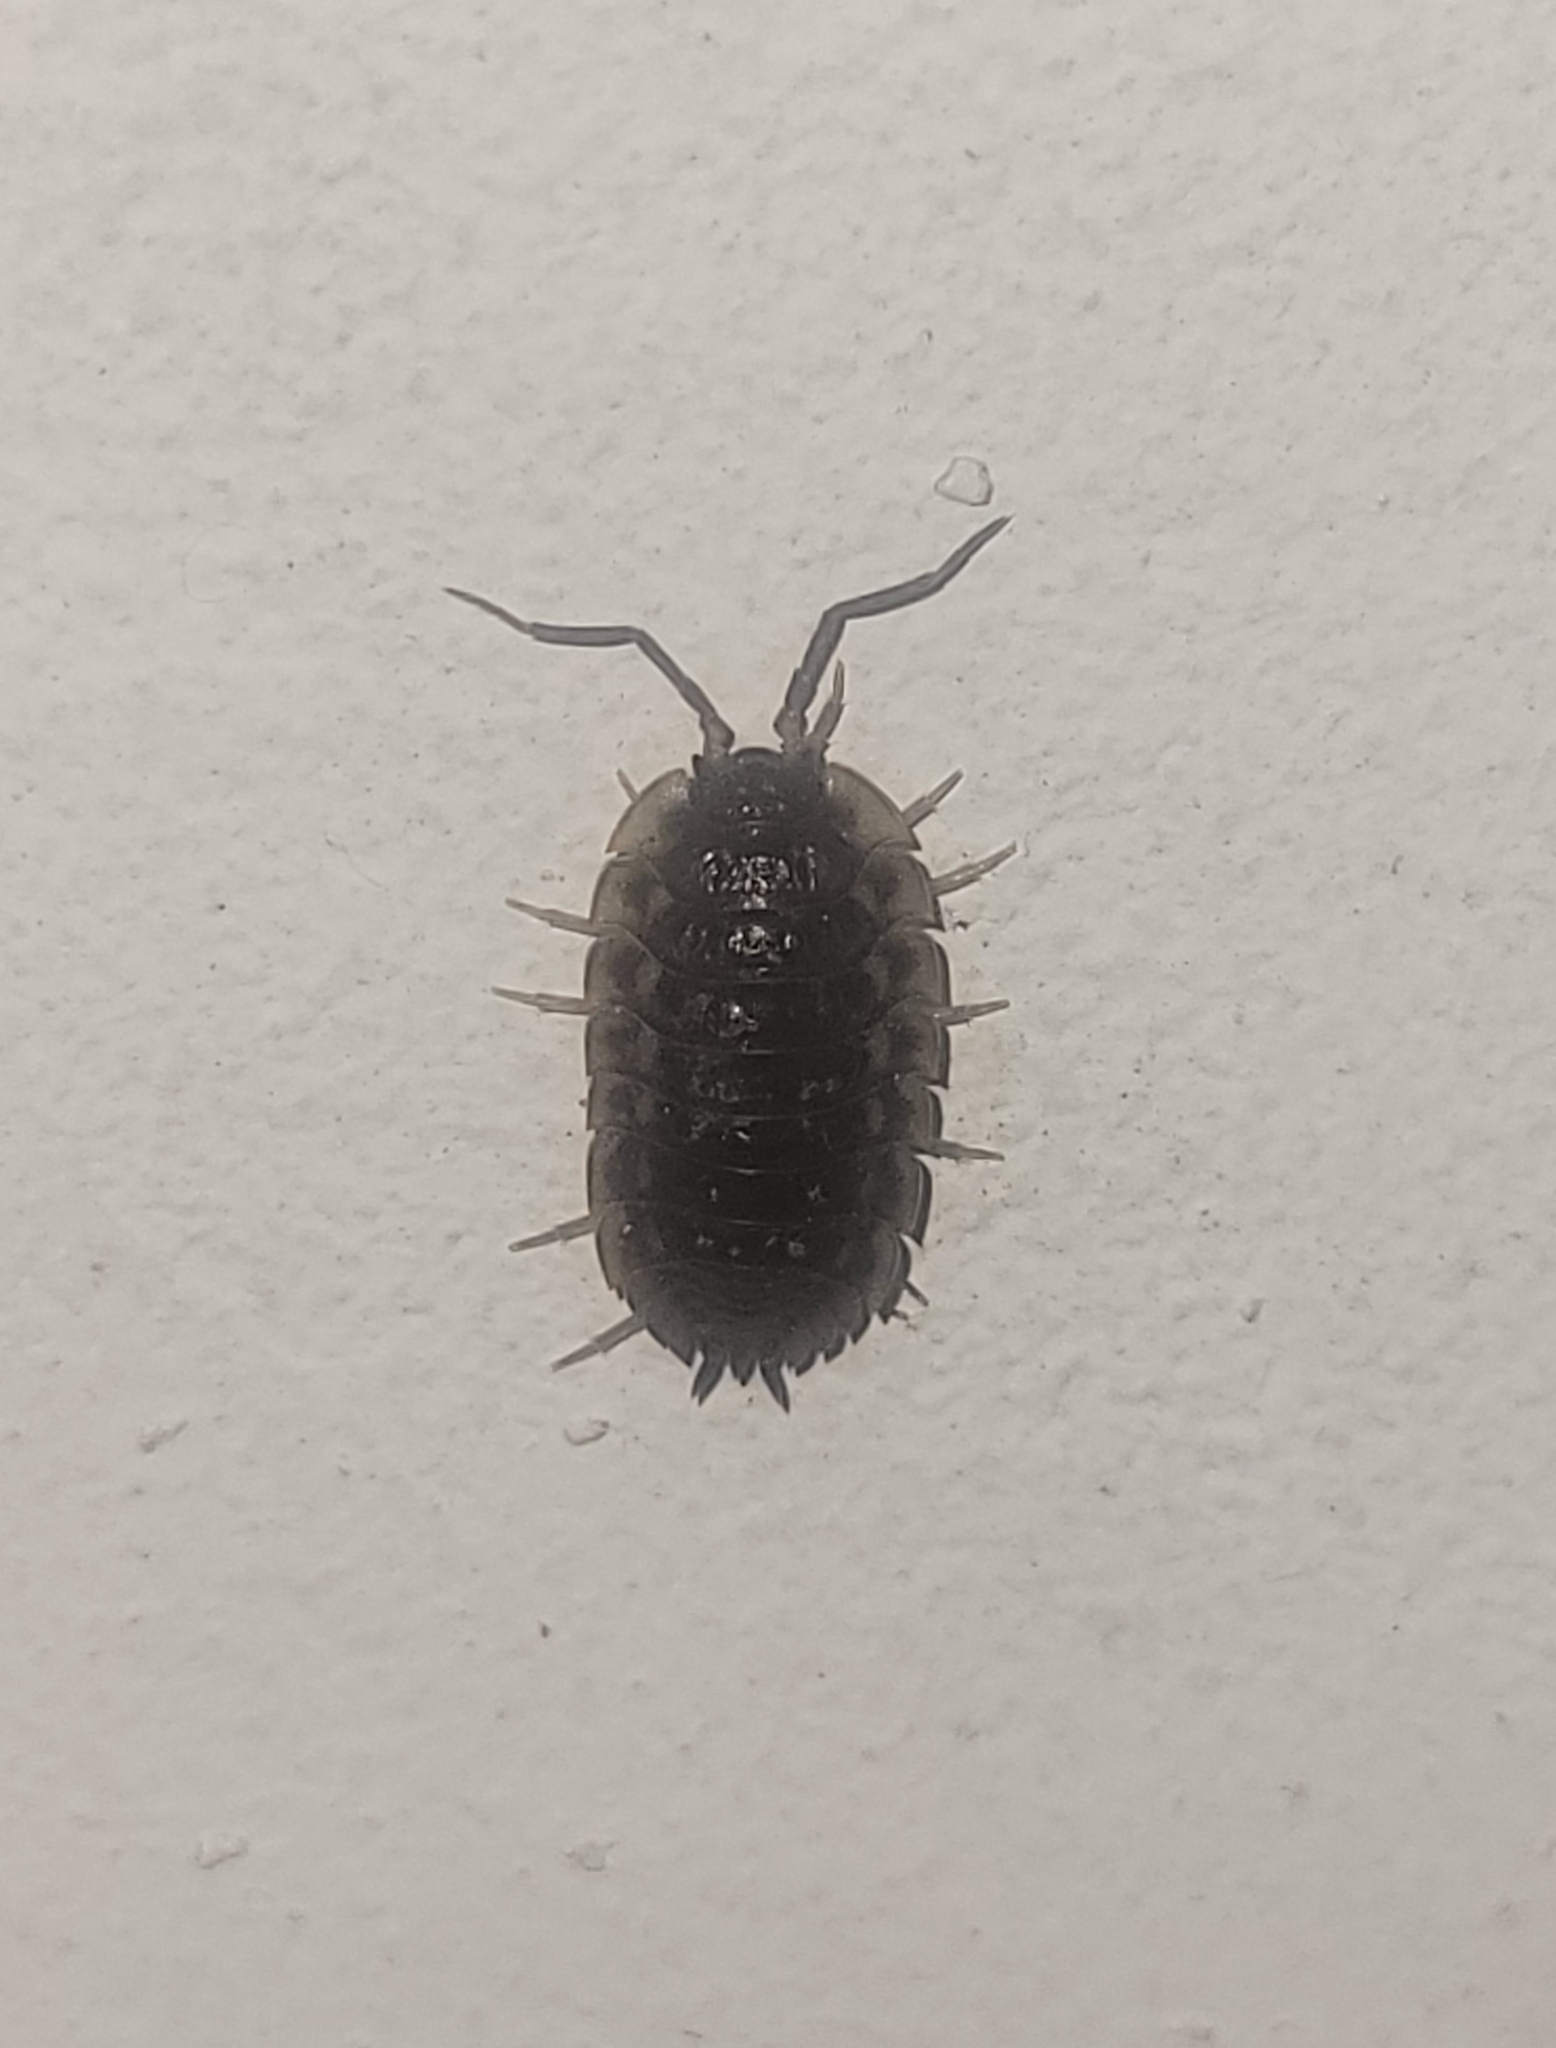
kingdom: Animalia
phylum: Arthropoda
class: Malacostraca
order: Isopoda
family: Oniscidae
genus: Oniscus
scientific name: Oniscus asellus
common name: Common shiny woodlouse
